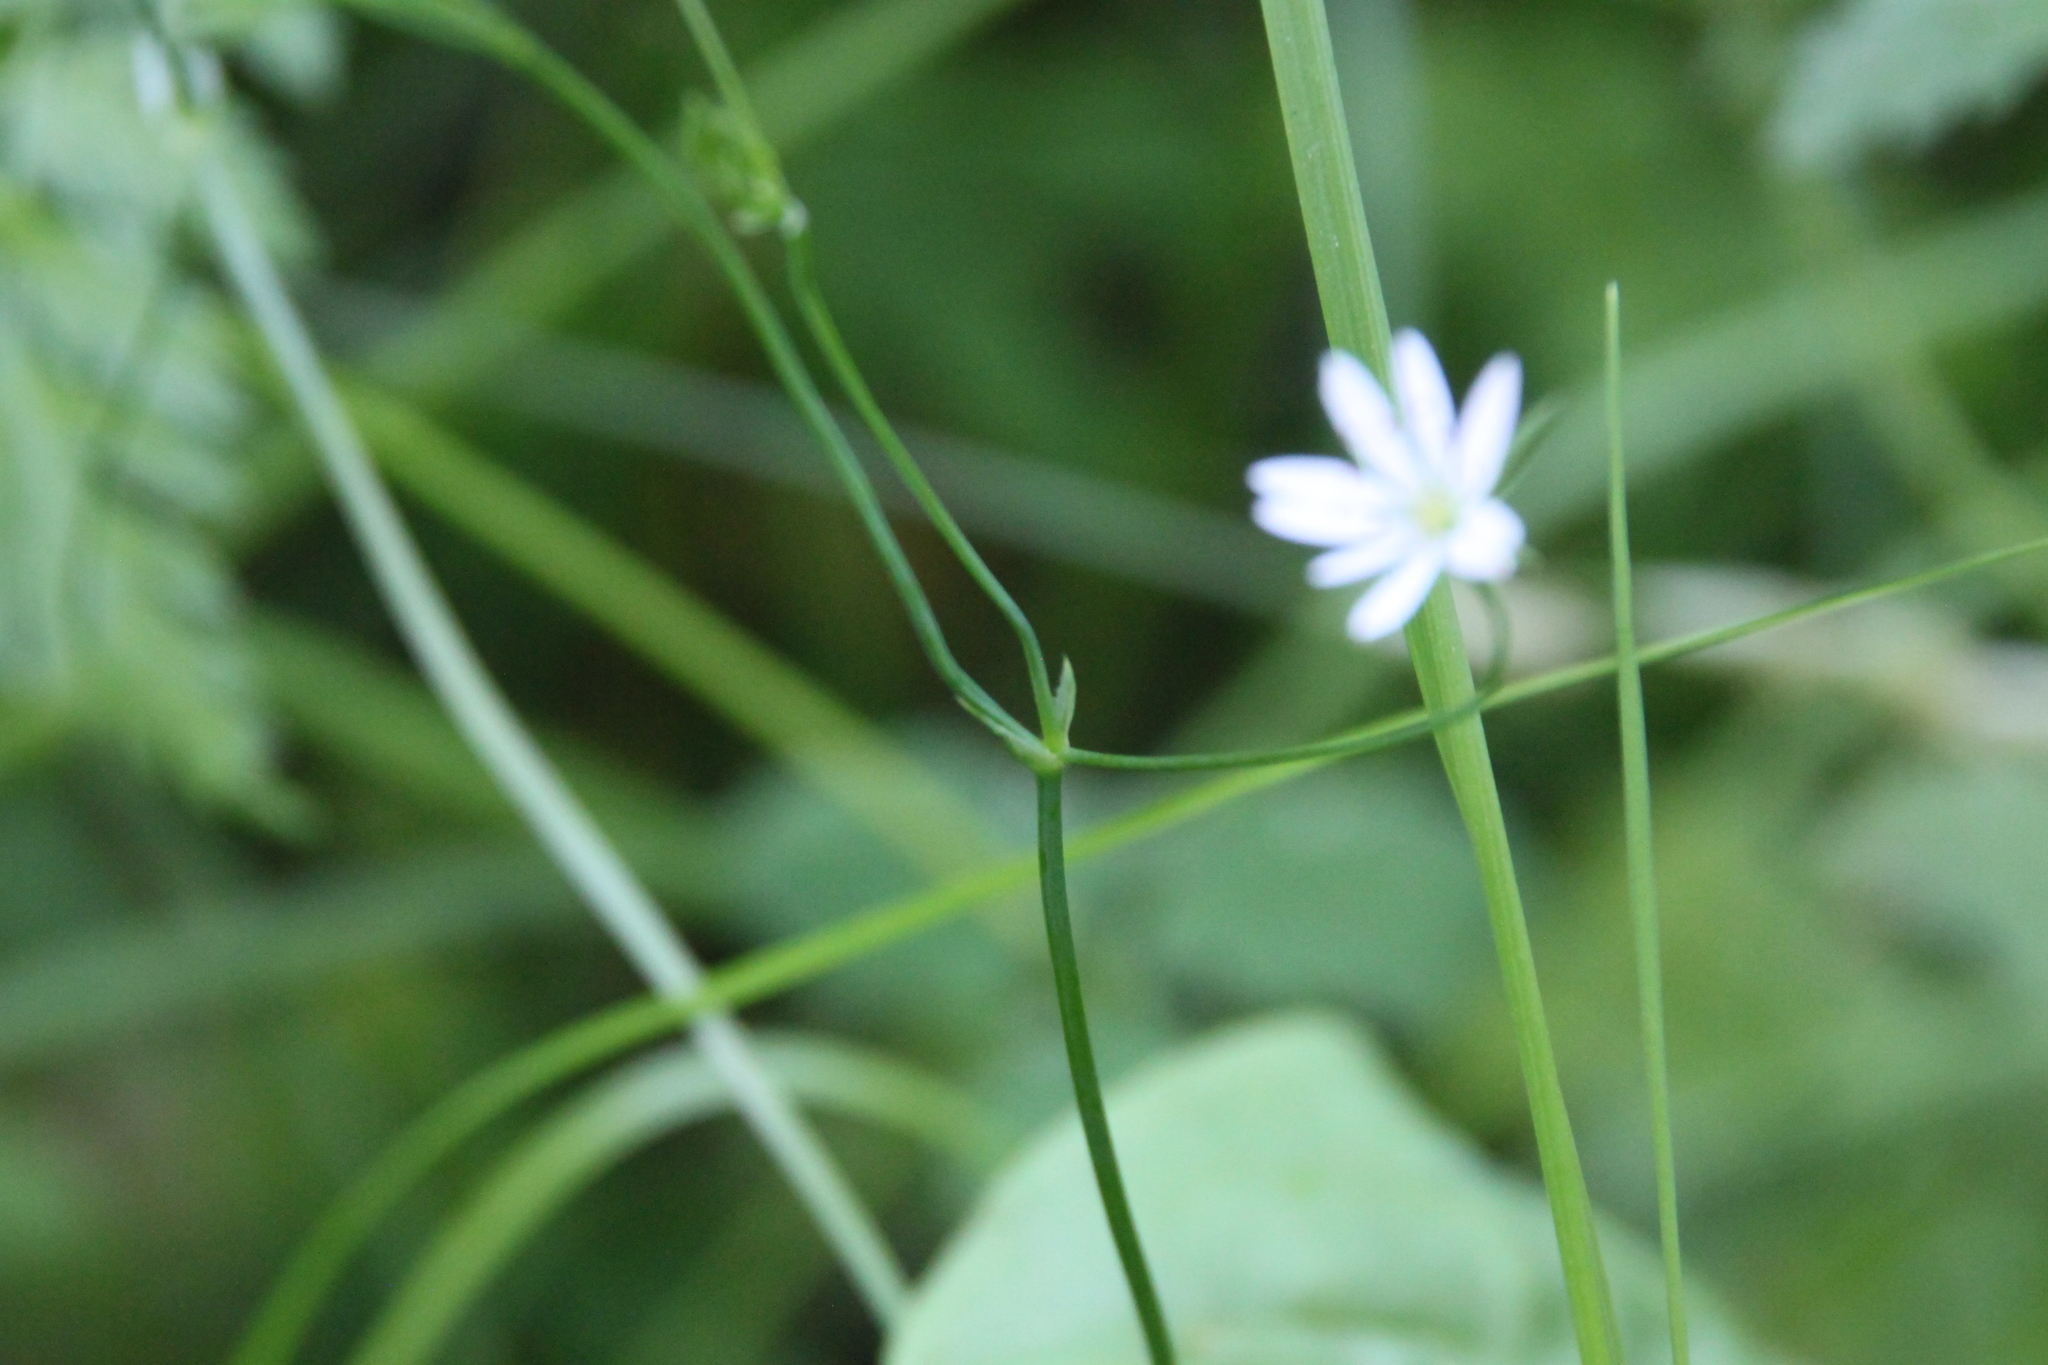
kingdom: Plantae
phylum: Tracheophyta
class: Magnoliopsida
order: Caryophyllales
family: Caryophyllaceae
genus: Stellaria
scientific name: Stellaria graminea
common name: Grass-like starwort
